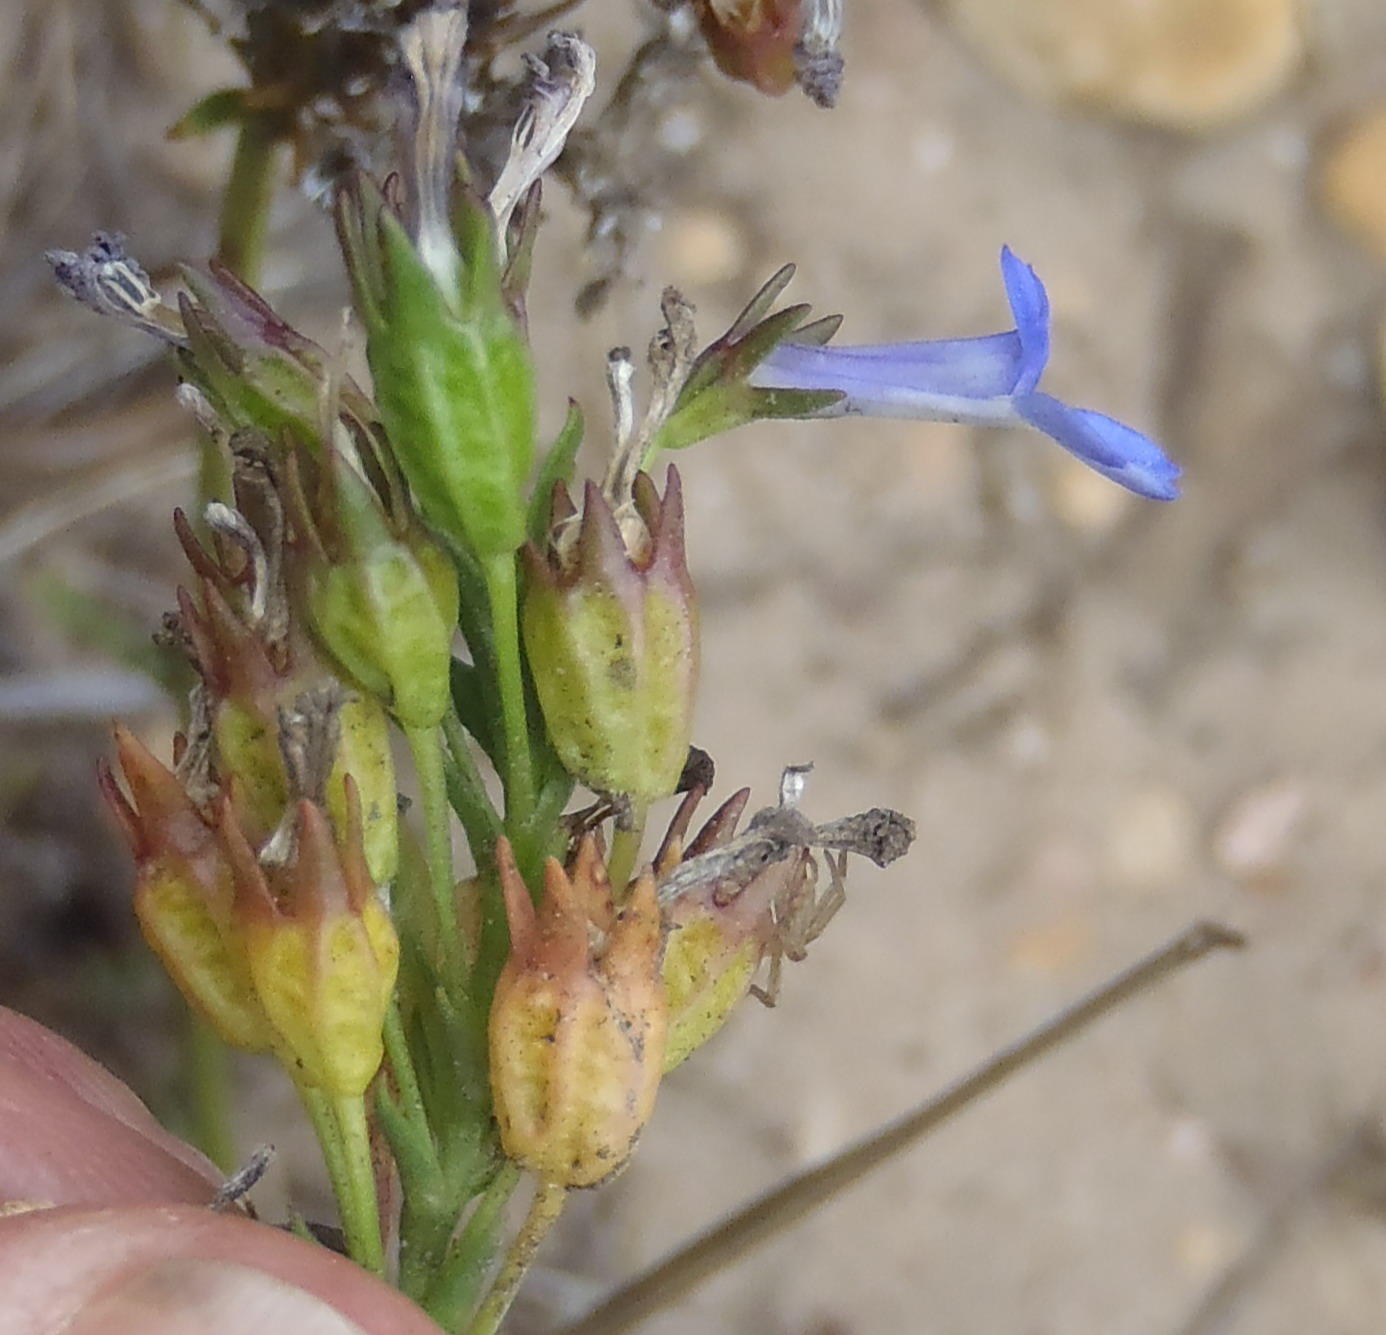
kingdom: Plantae
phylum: Tracheophyta
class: Magnoliopsida
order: Asterales
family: Campanulaceae
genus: Lobelia
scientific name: Lobelia comosa
